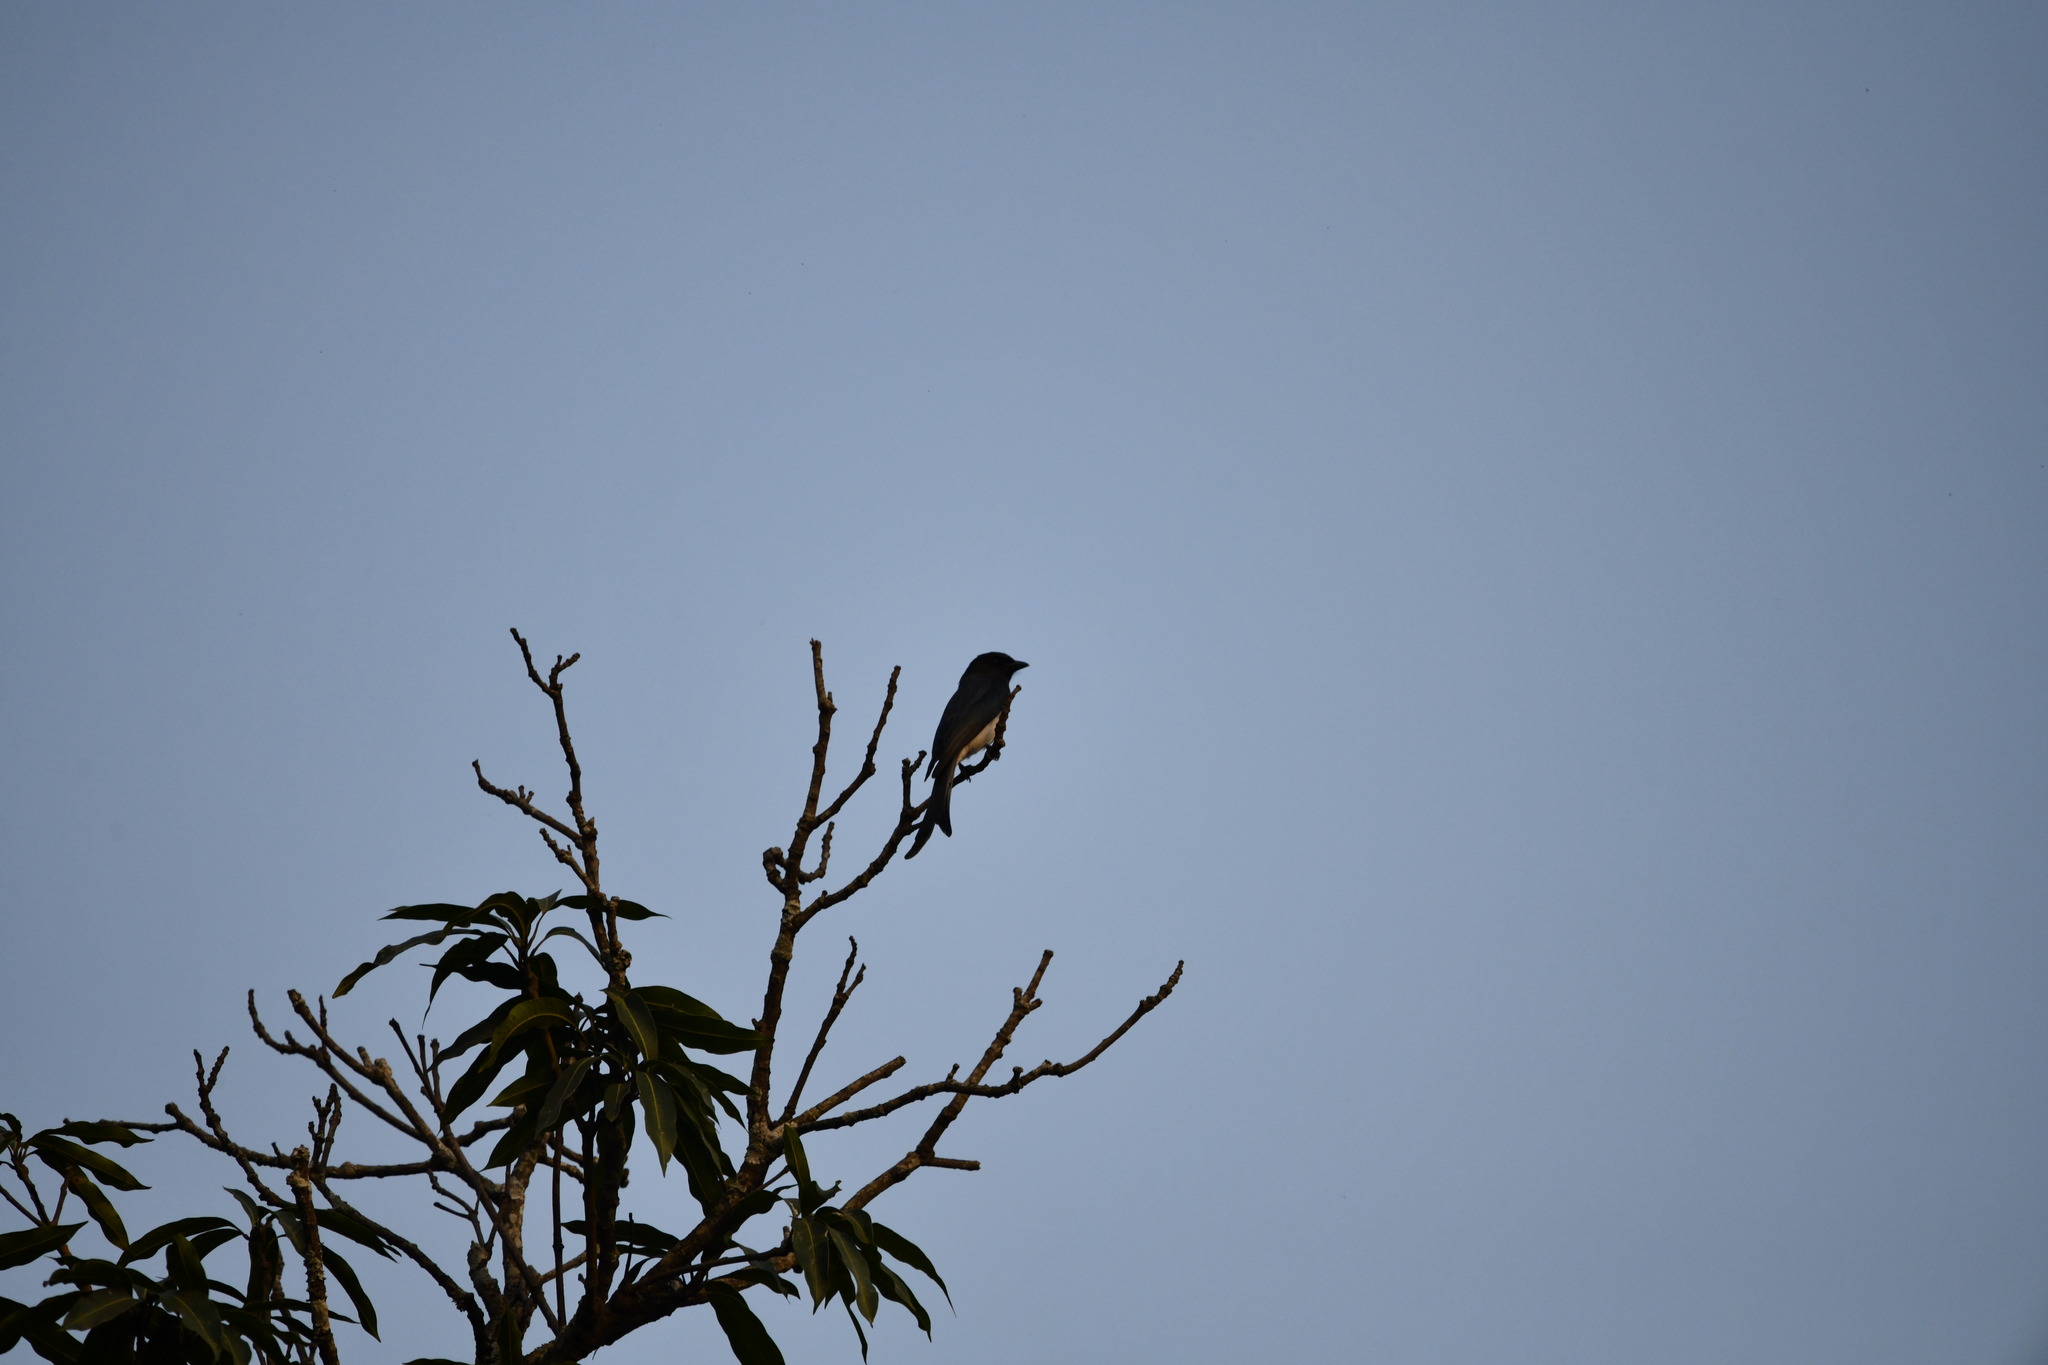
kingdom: Animalia
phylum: Chordata
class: Aves
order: Passeriformes
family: Dicruridae
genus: Dicrurus
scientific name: Dicrurus caerulescens
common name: White-bellied drongo
